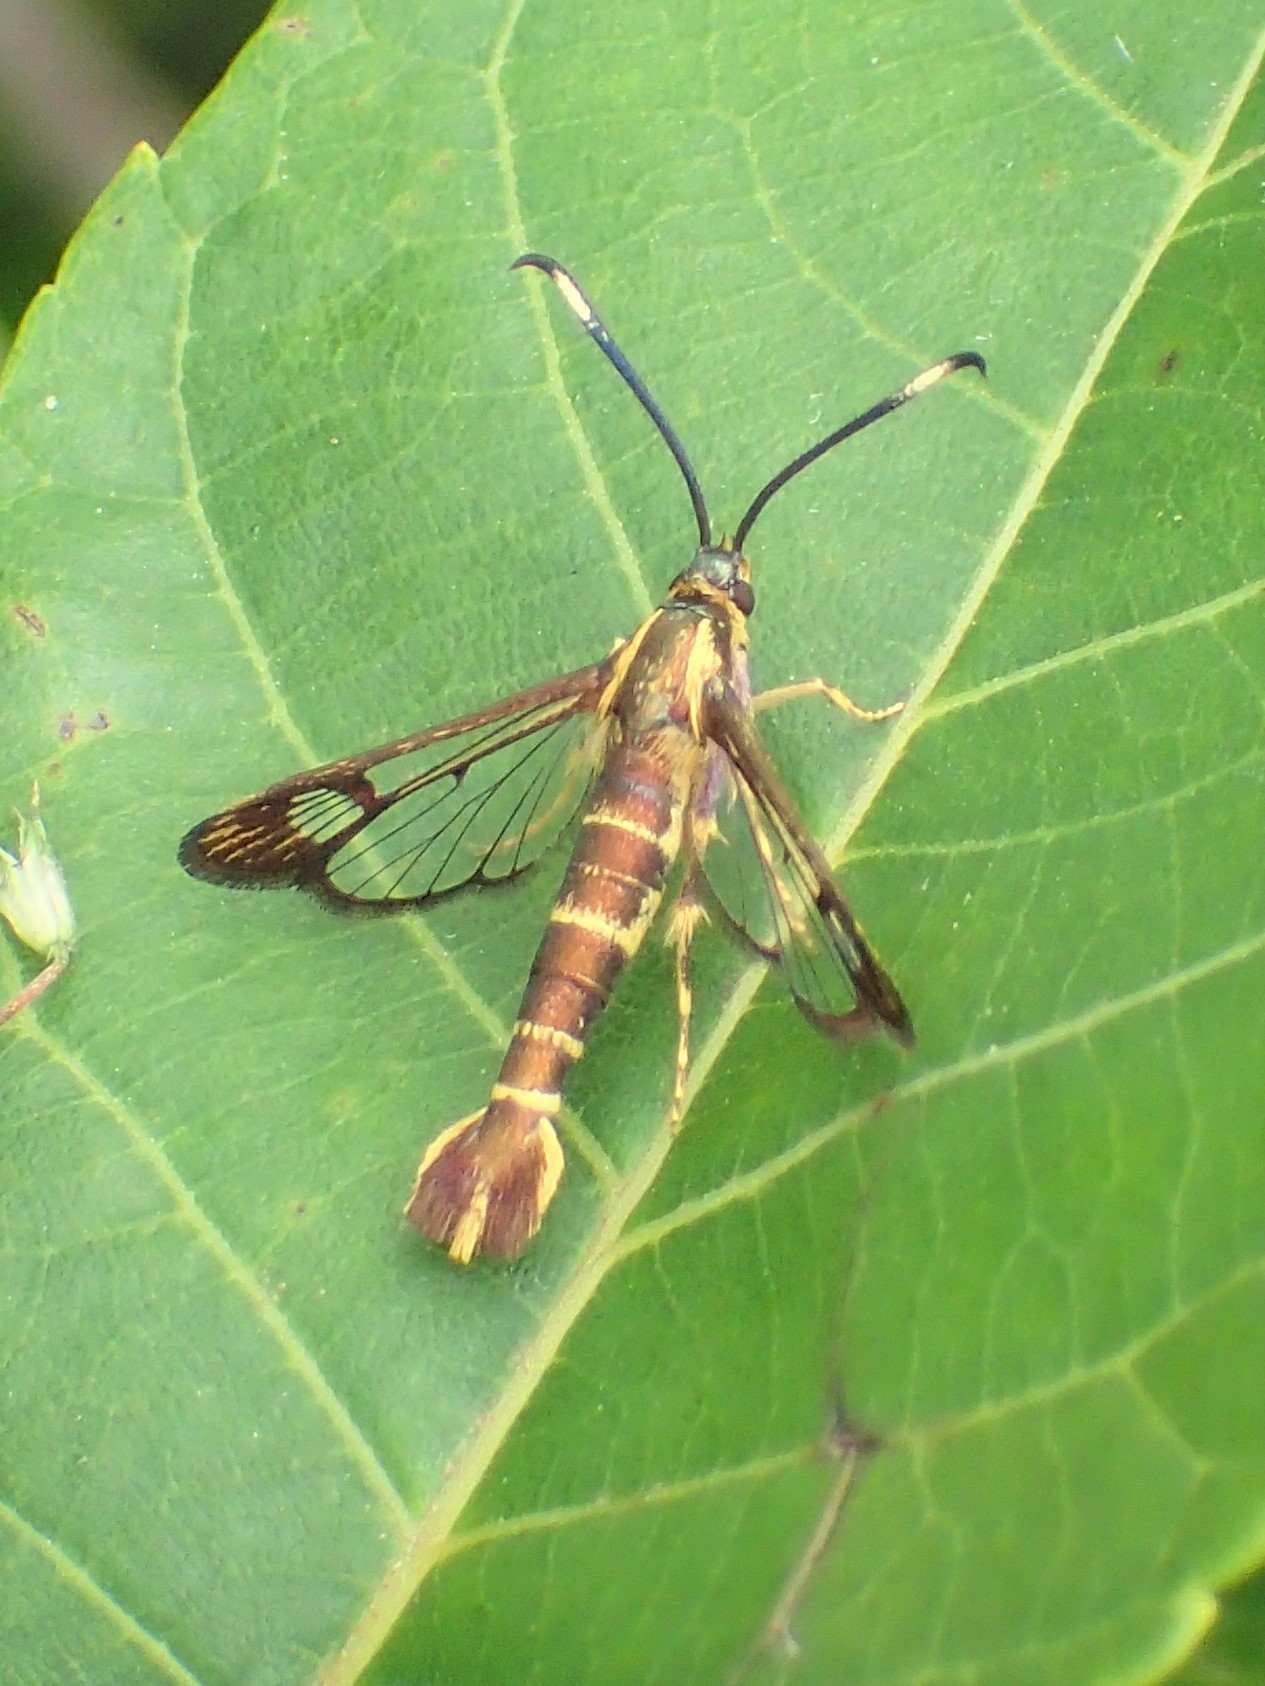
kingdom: Animalia
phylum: Arthropoda
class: Insecta
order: Lepidoptera
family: Sesiidae
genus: Carmenta
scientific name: Carmenta bassiformis
